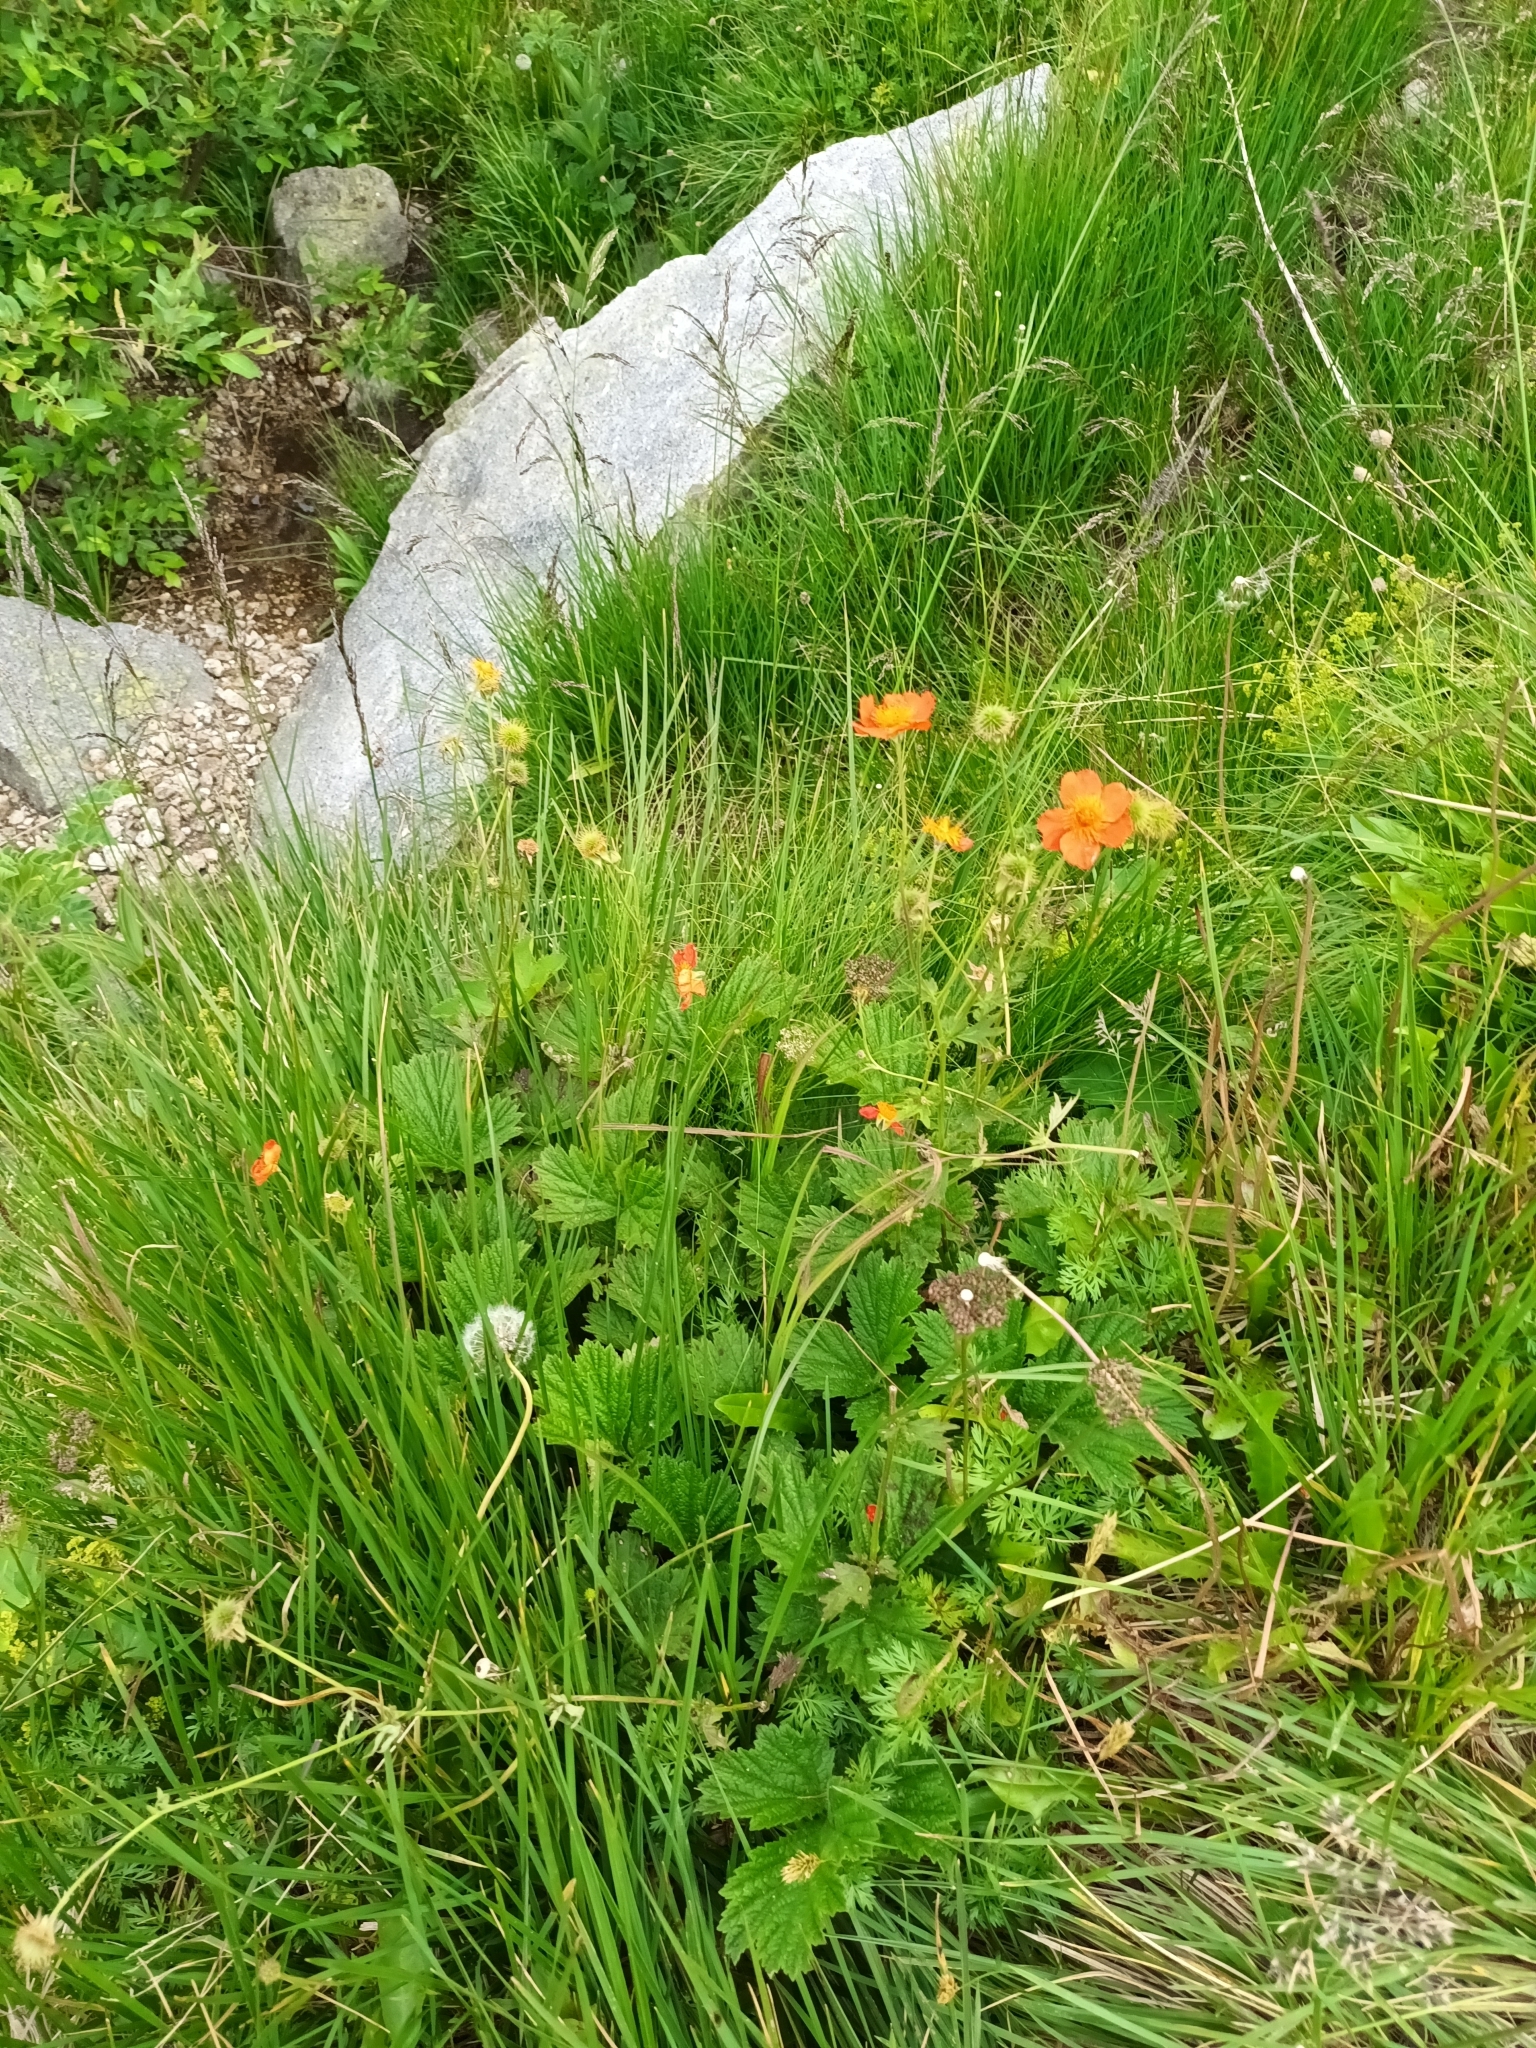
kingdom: Plantae
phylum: Tracheophyta
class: Magnoliopsida
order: Rosales
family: Rosaceae
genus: Geum
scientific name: Geum coccineum
